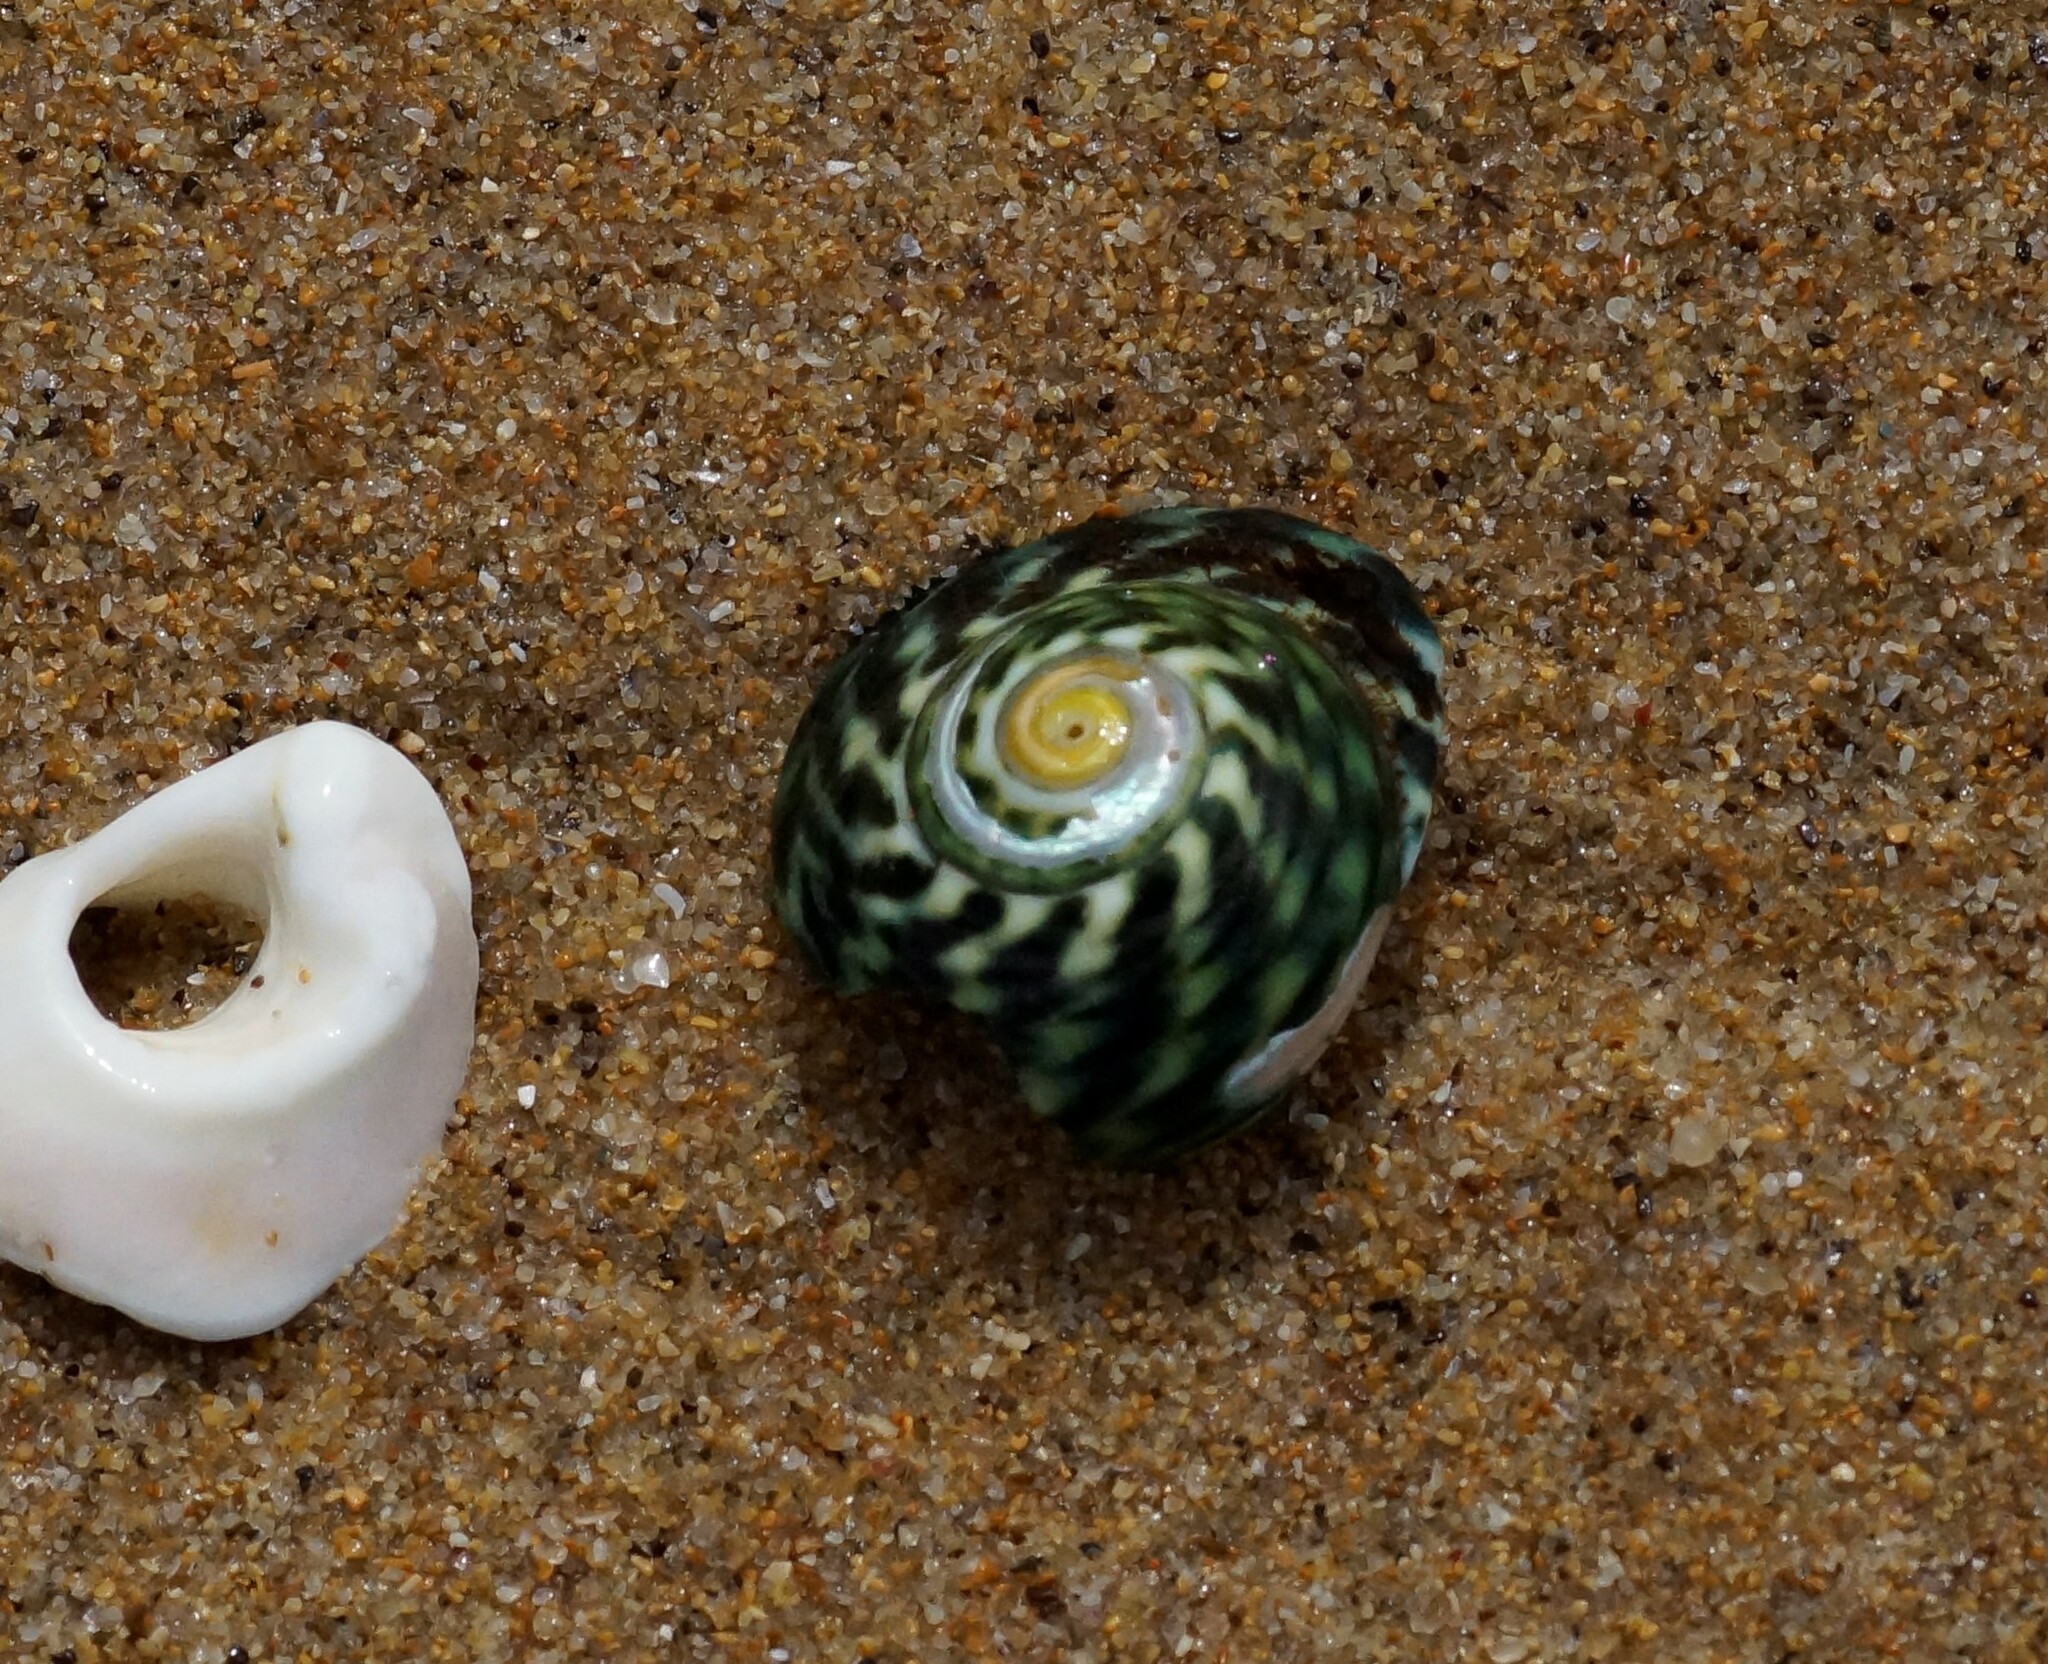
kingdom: Animalia
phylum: Mollusca
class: Gastropoda
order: Trochida
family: Turbinidae
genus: Lunella
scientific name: Lunella undulata
